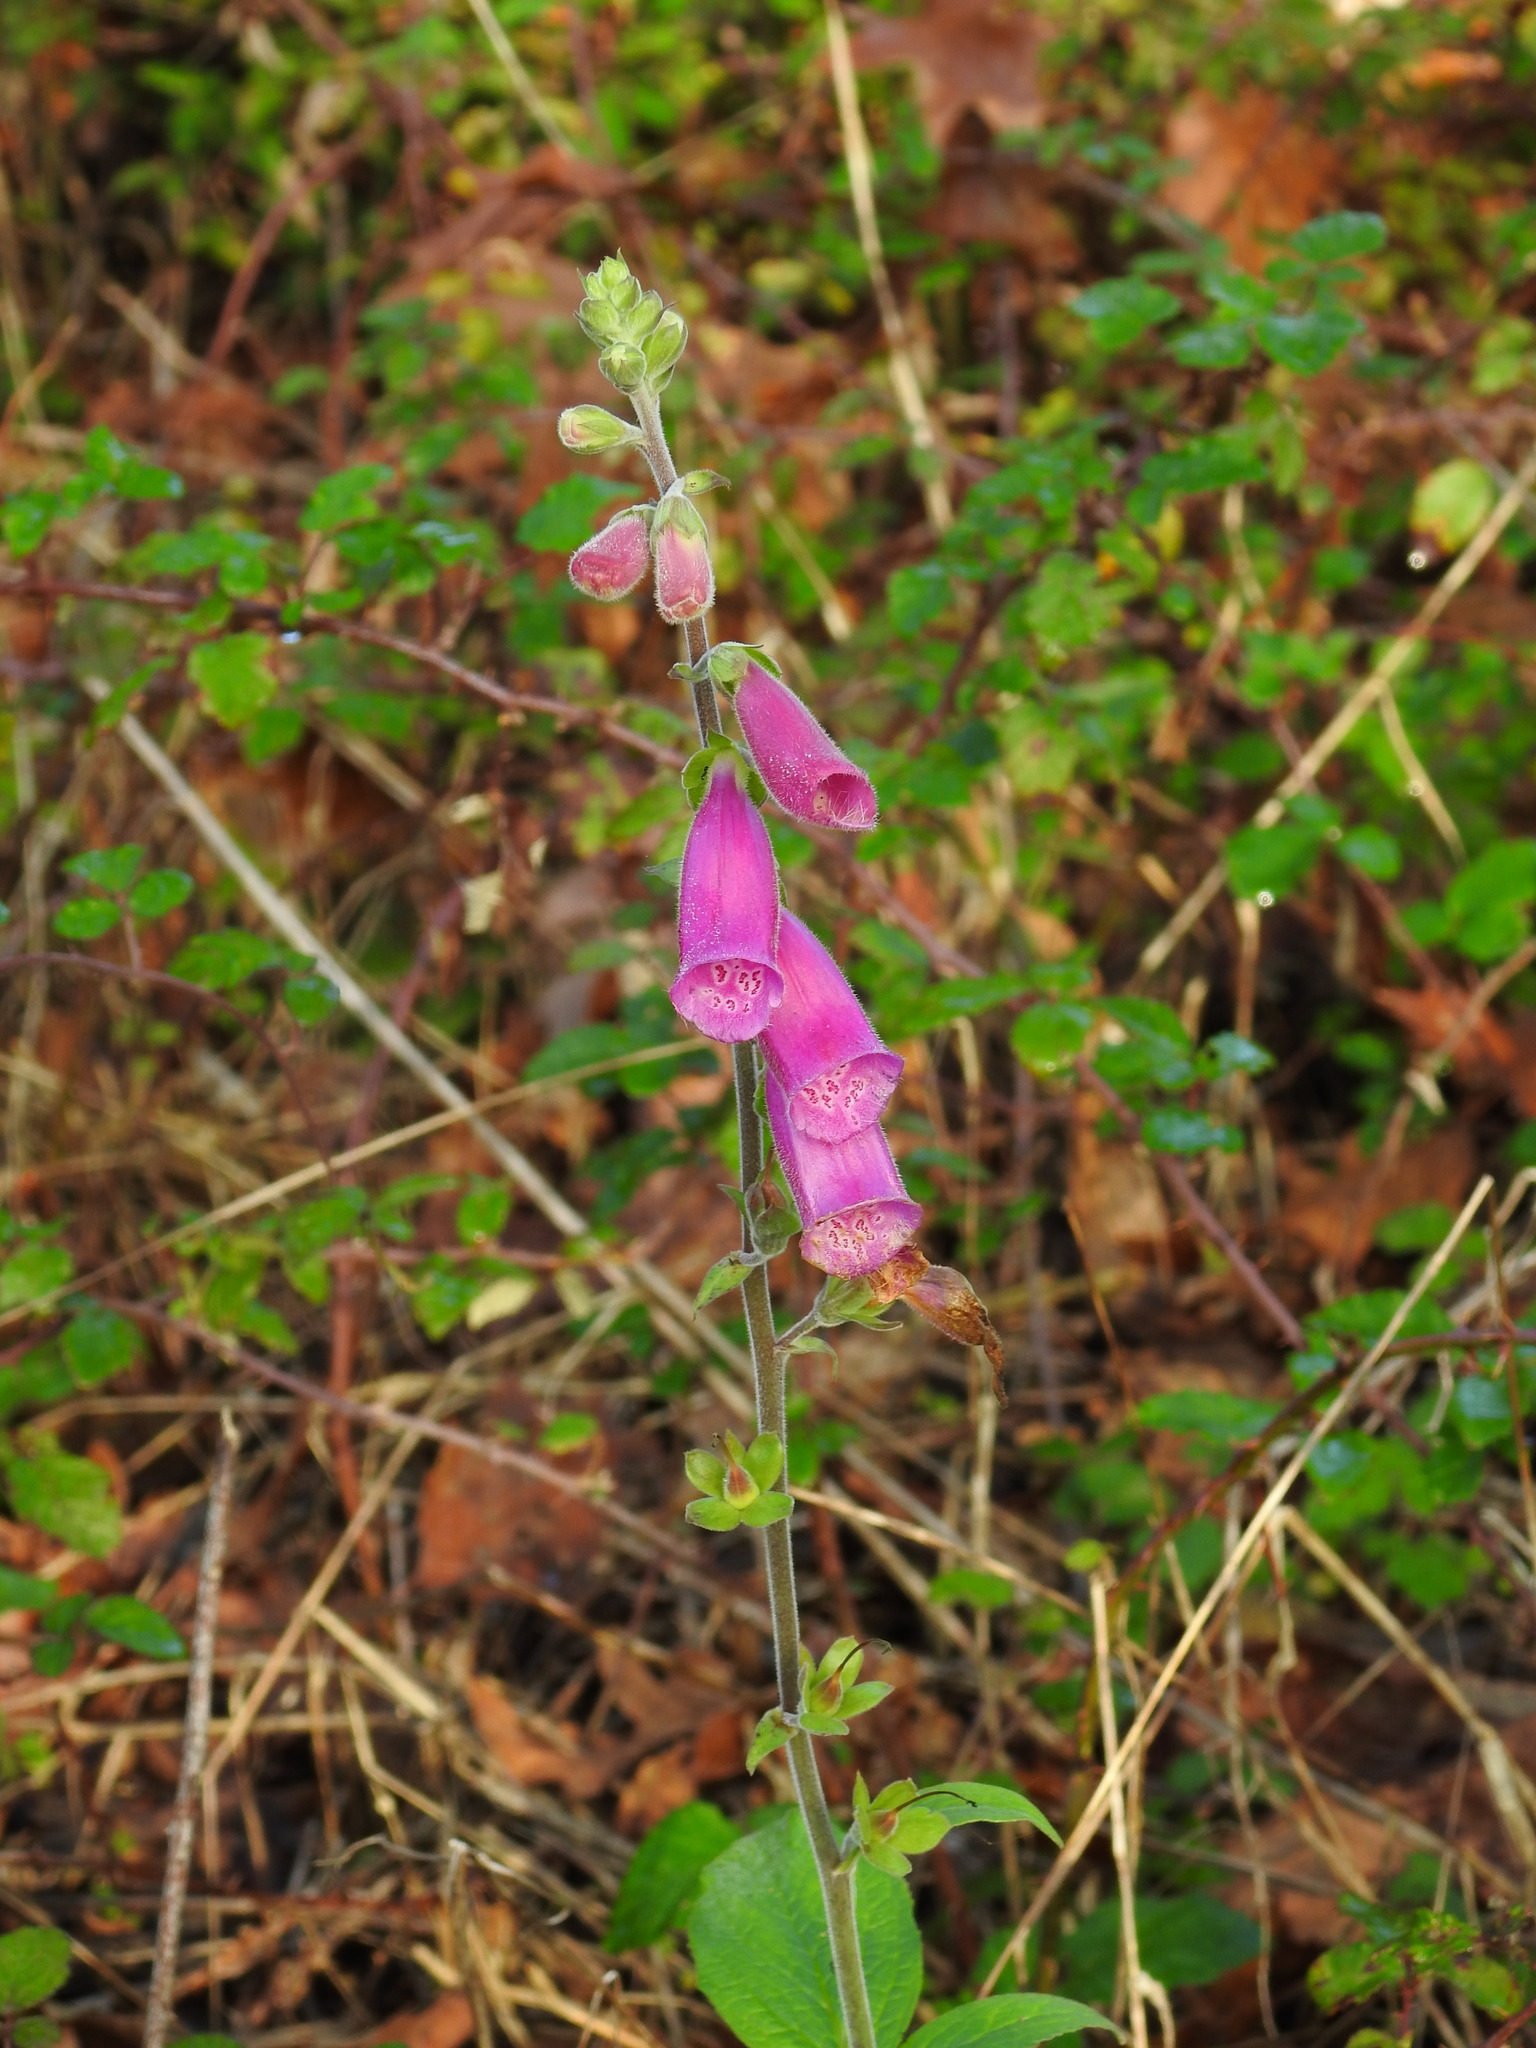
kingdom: Plantae
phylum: Tracheophyta
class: Magnoliopsida
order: Lamiales
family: Plantaginaceae
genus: Digitalis
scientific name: Digitalis purpurea
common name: Foxglove
